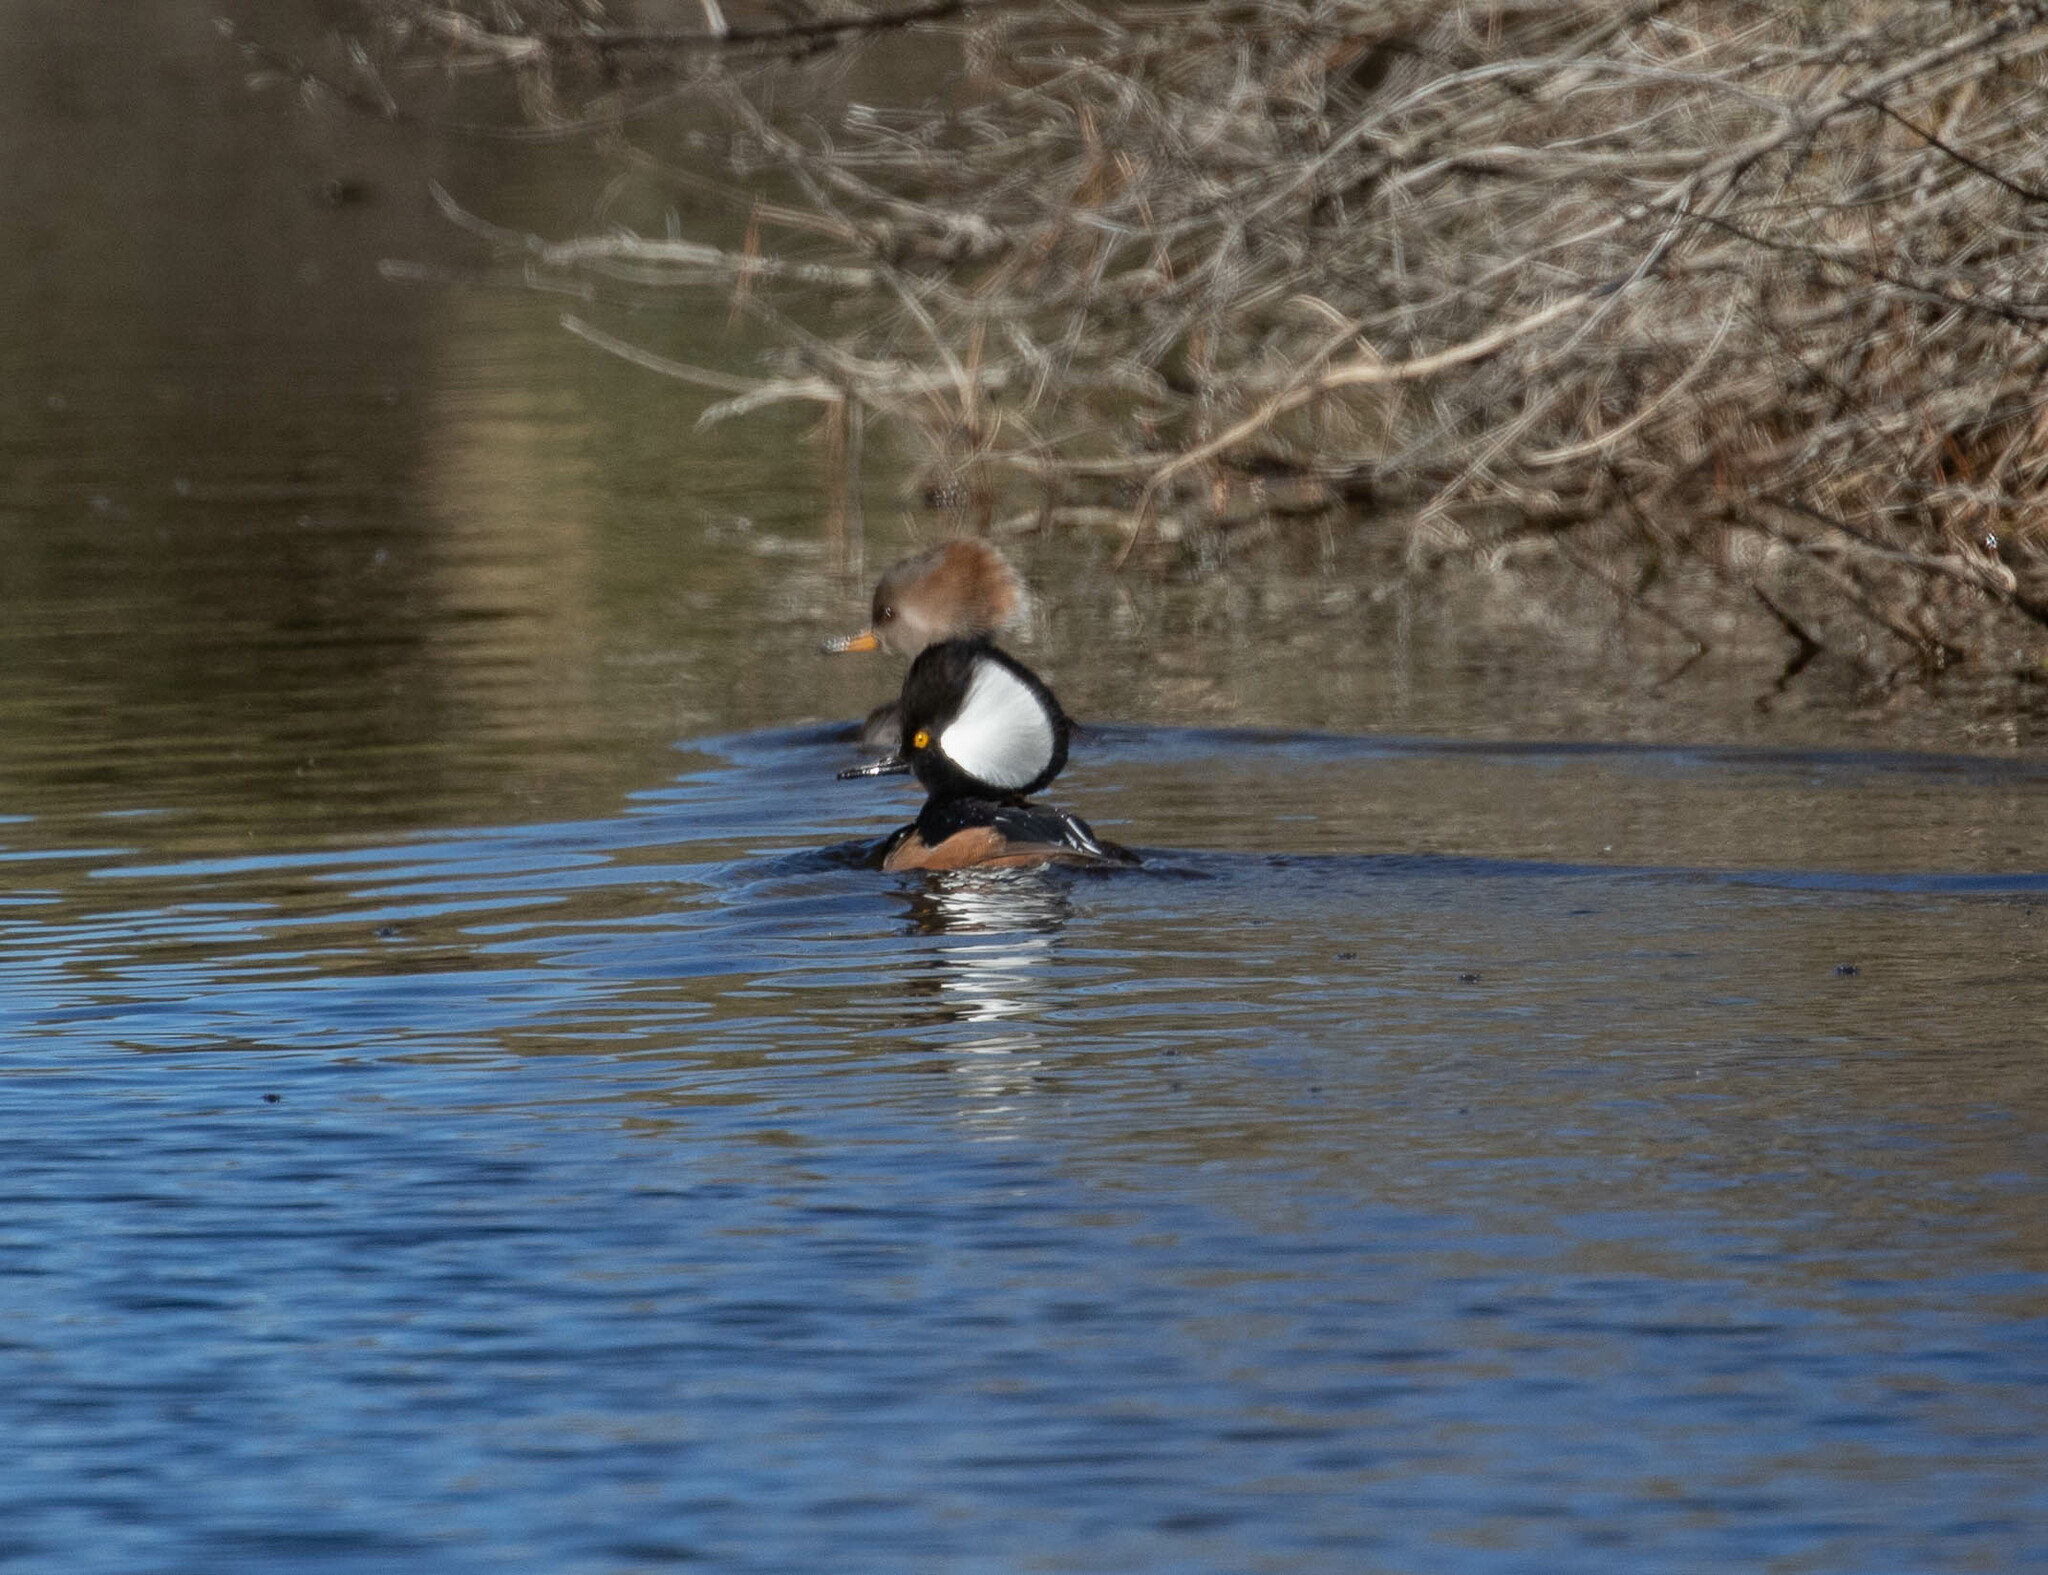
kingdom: Animalia
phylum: Chordata
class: Aves
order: Anseriformes
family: Anatidae
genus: Lophodytes
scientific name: Lophodytes cucullatus
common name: Hooded merganser
